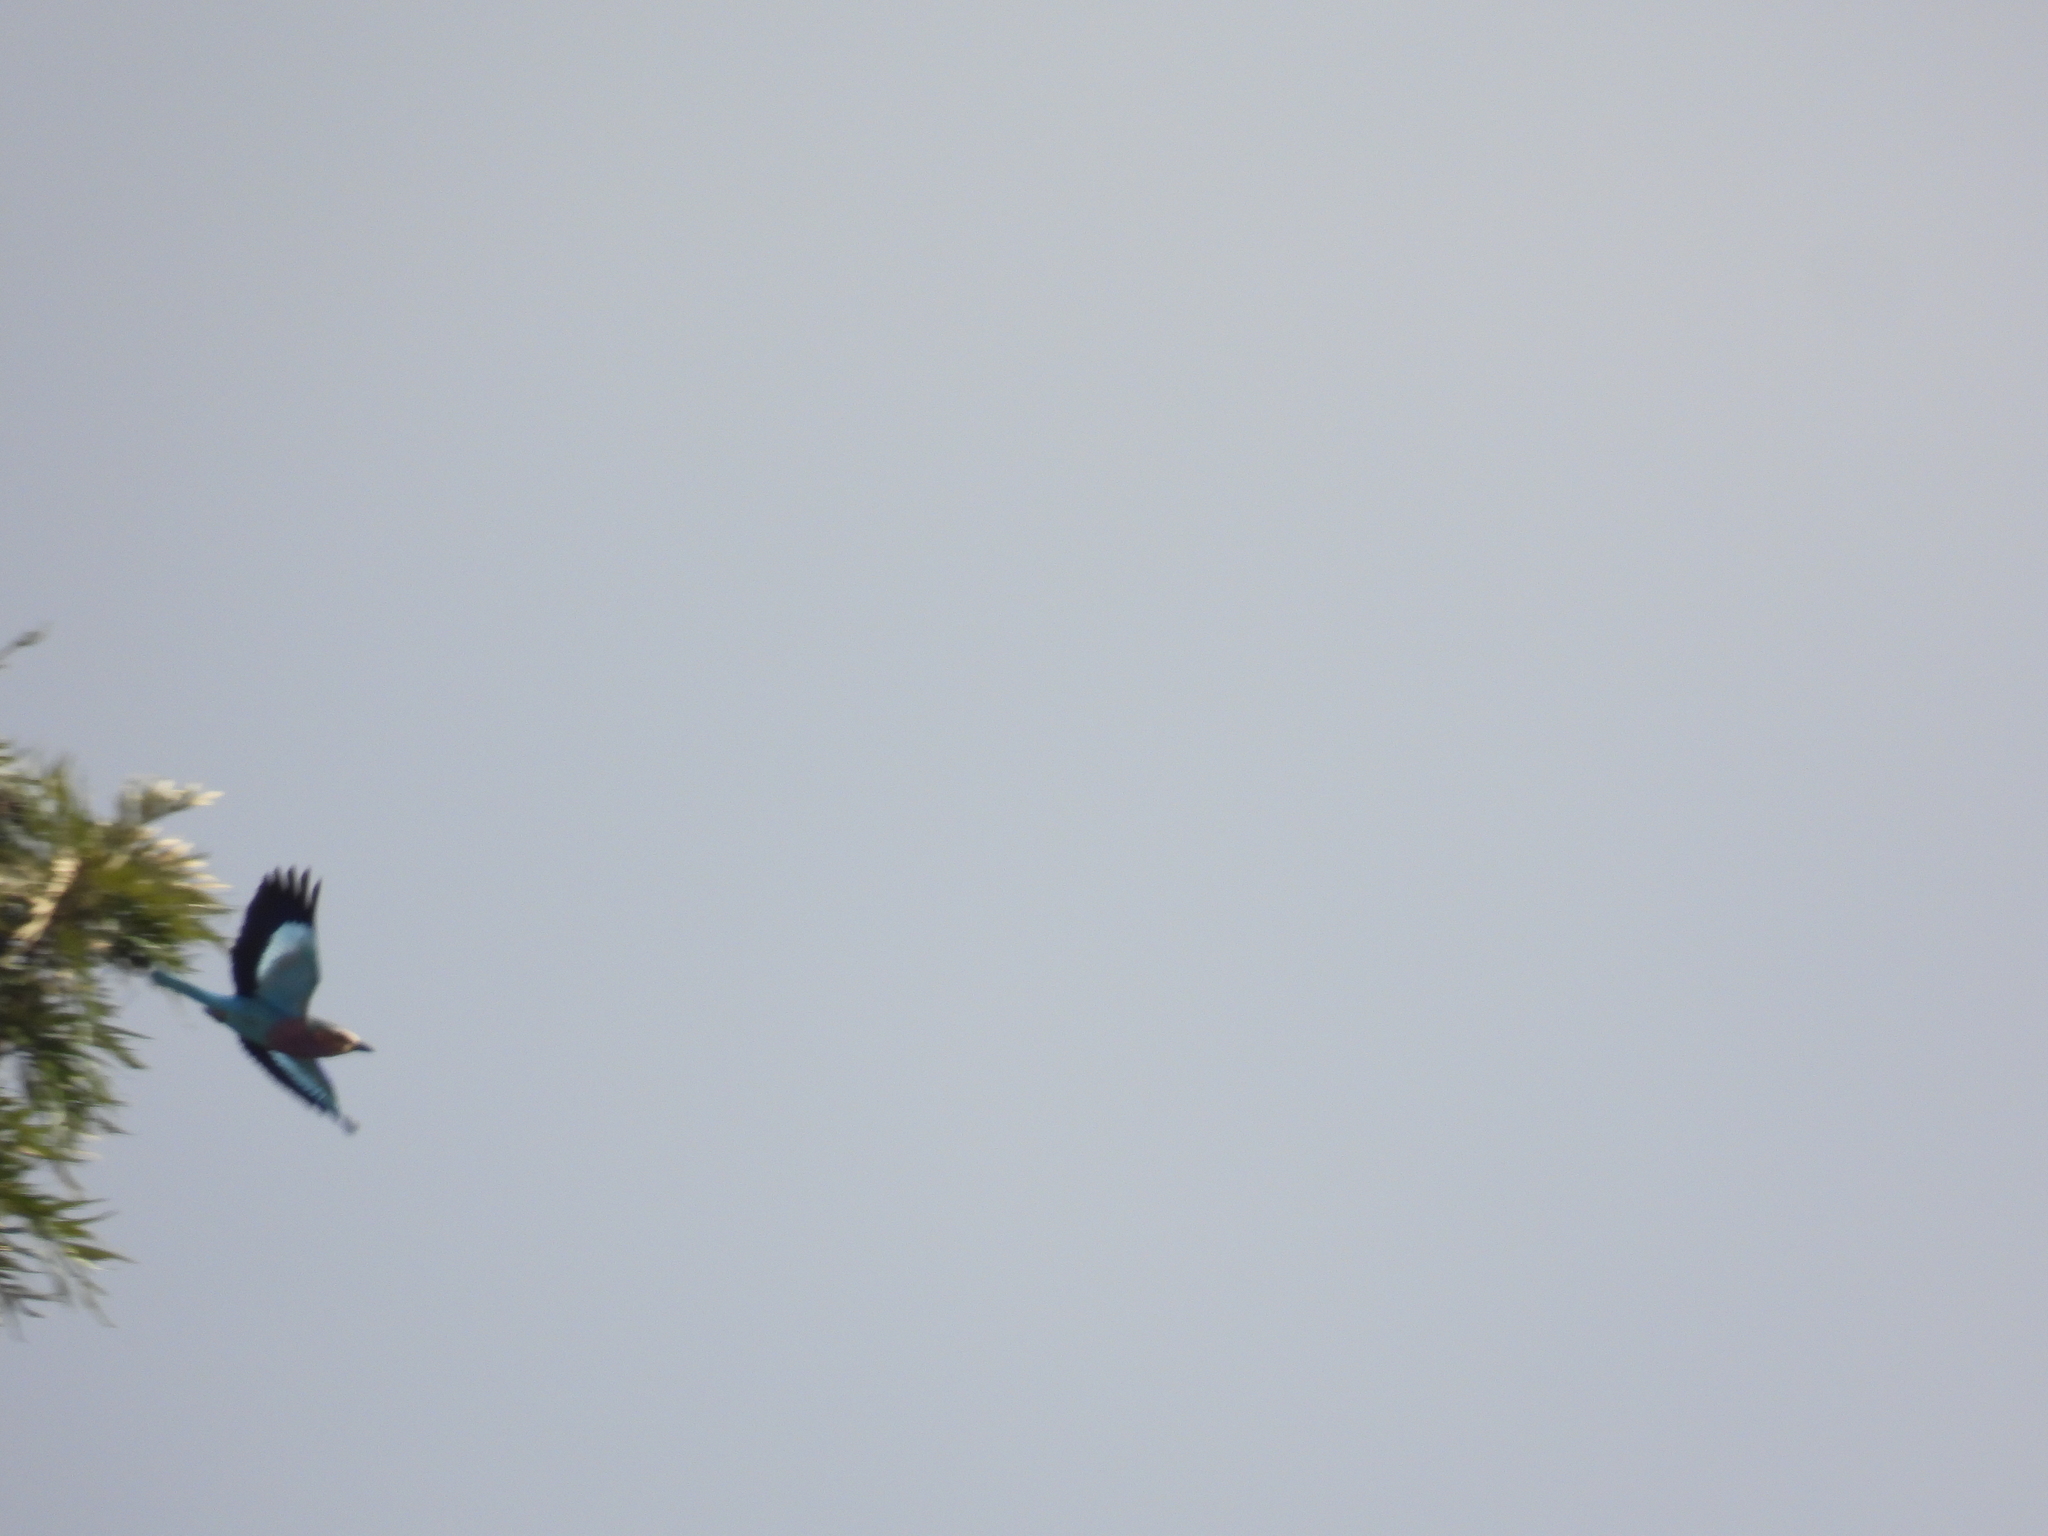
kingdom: Animalia
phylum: Chordata
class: Aves
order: Coraciiformes
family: Coraciidae
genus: Coracias
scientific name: Coracias caudatus
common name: Lilac-breasted roller
